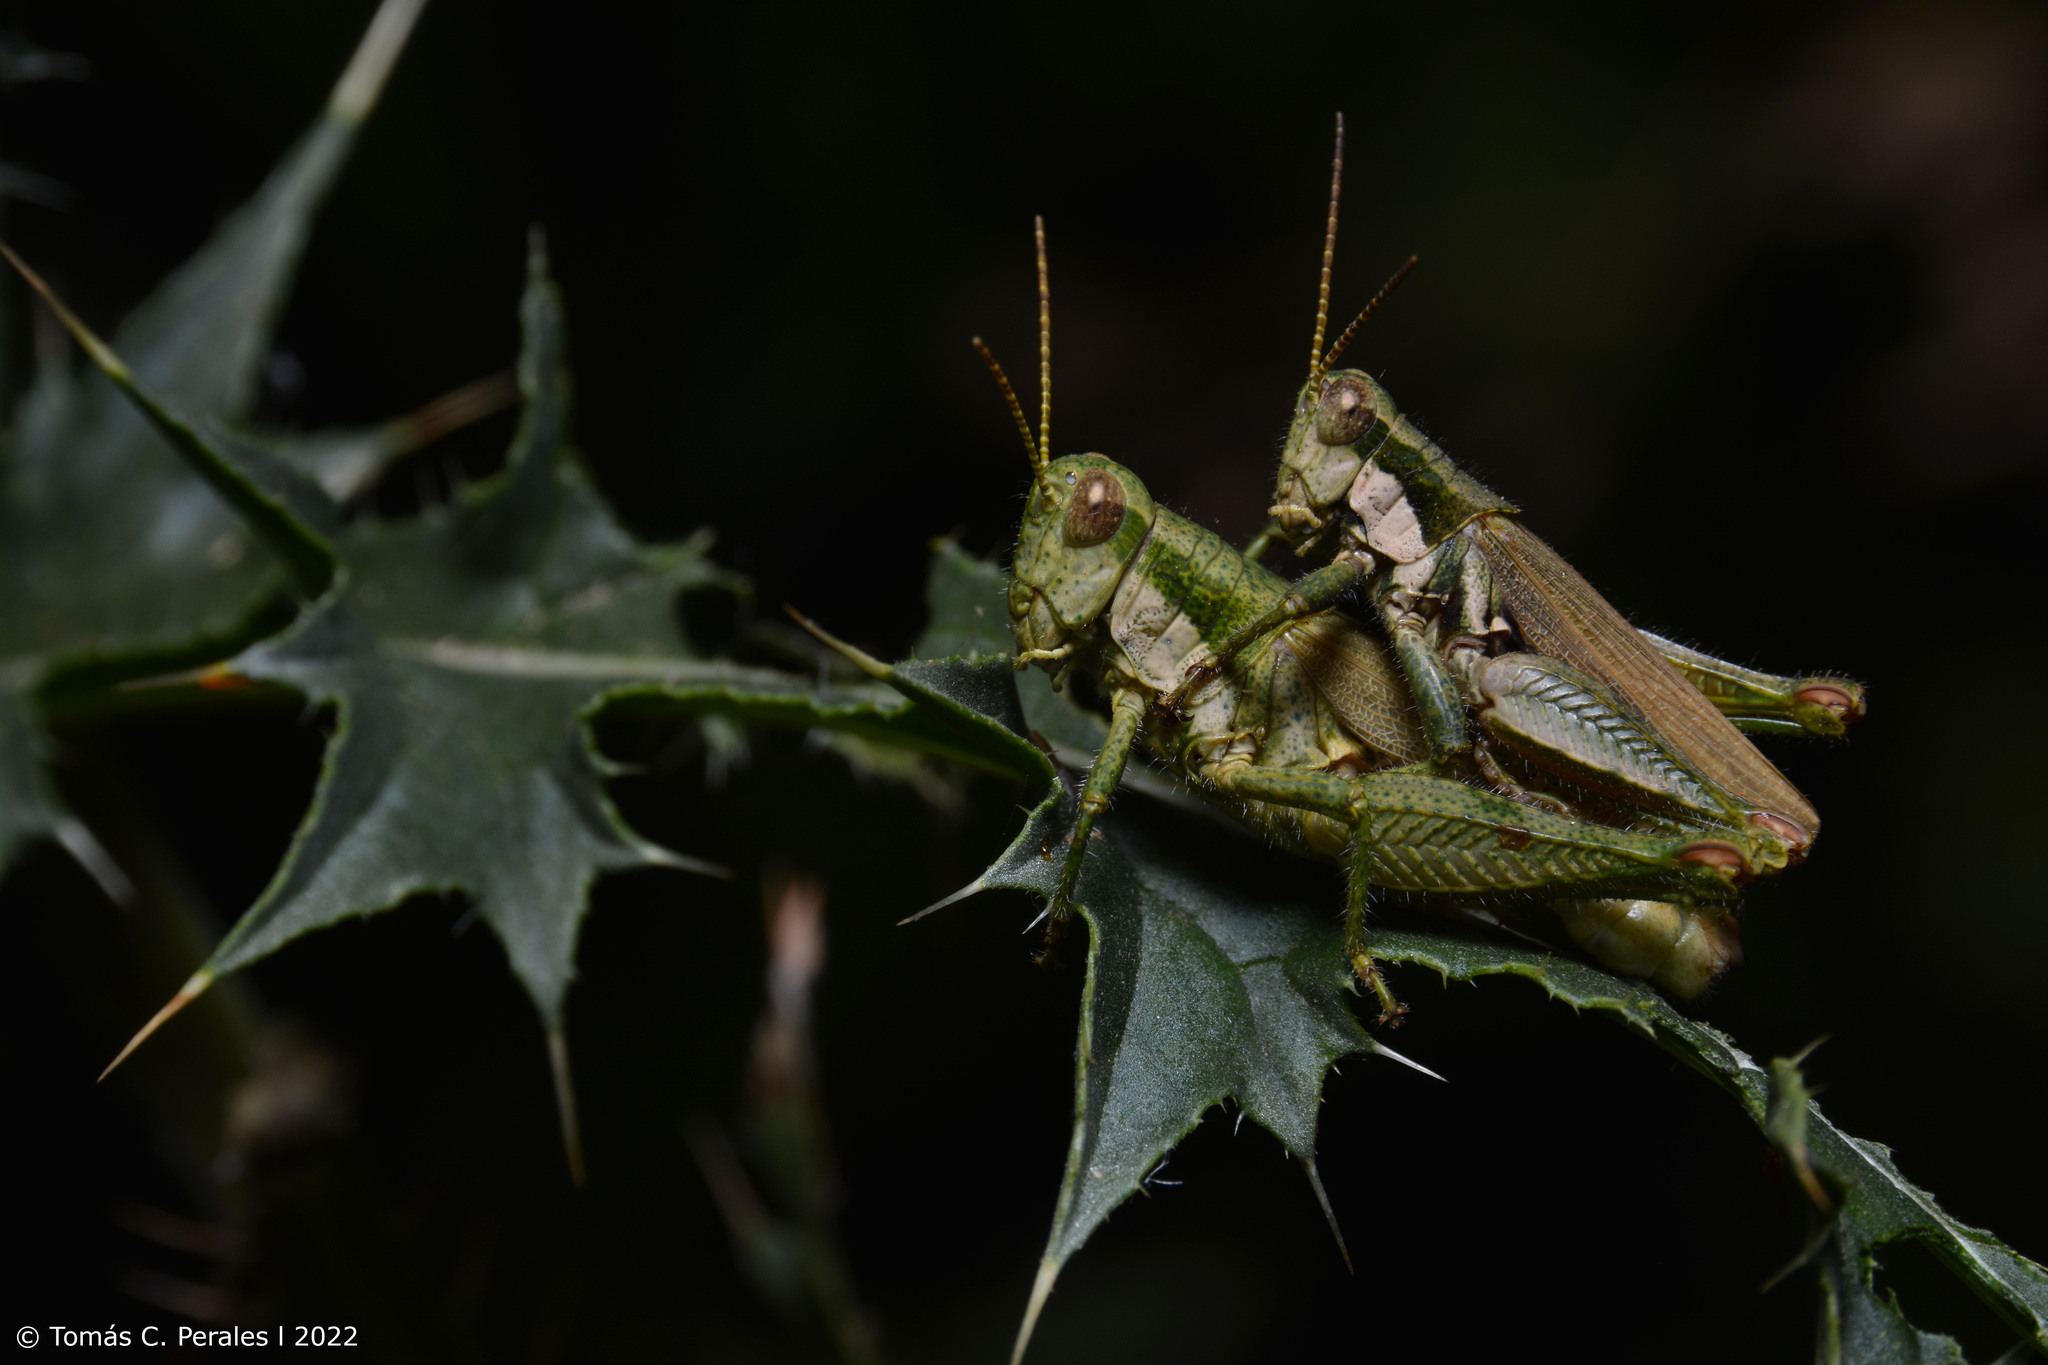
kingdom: Animalia
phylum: Arthropoda
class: Insecta
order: Orthoptera
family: Acrididae
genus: Ronderosia
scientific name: Ronderosia bergii
